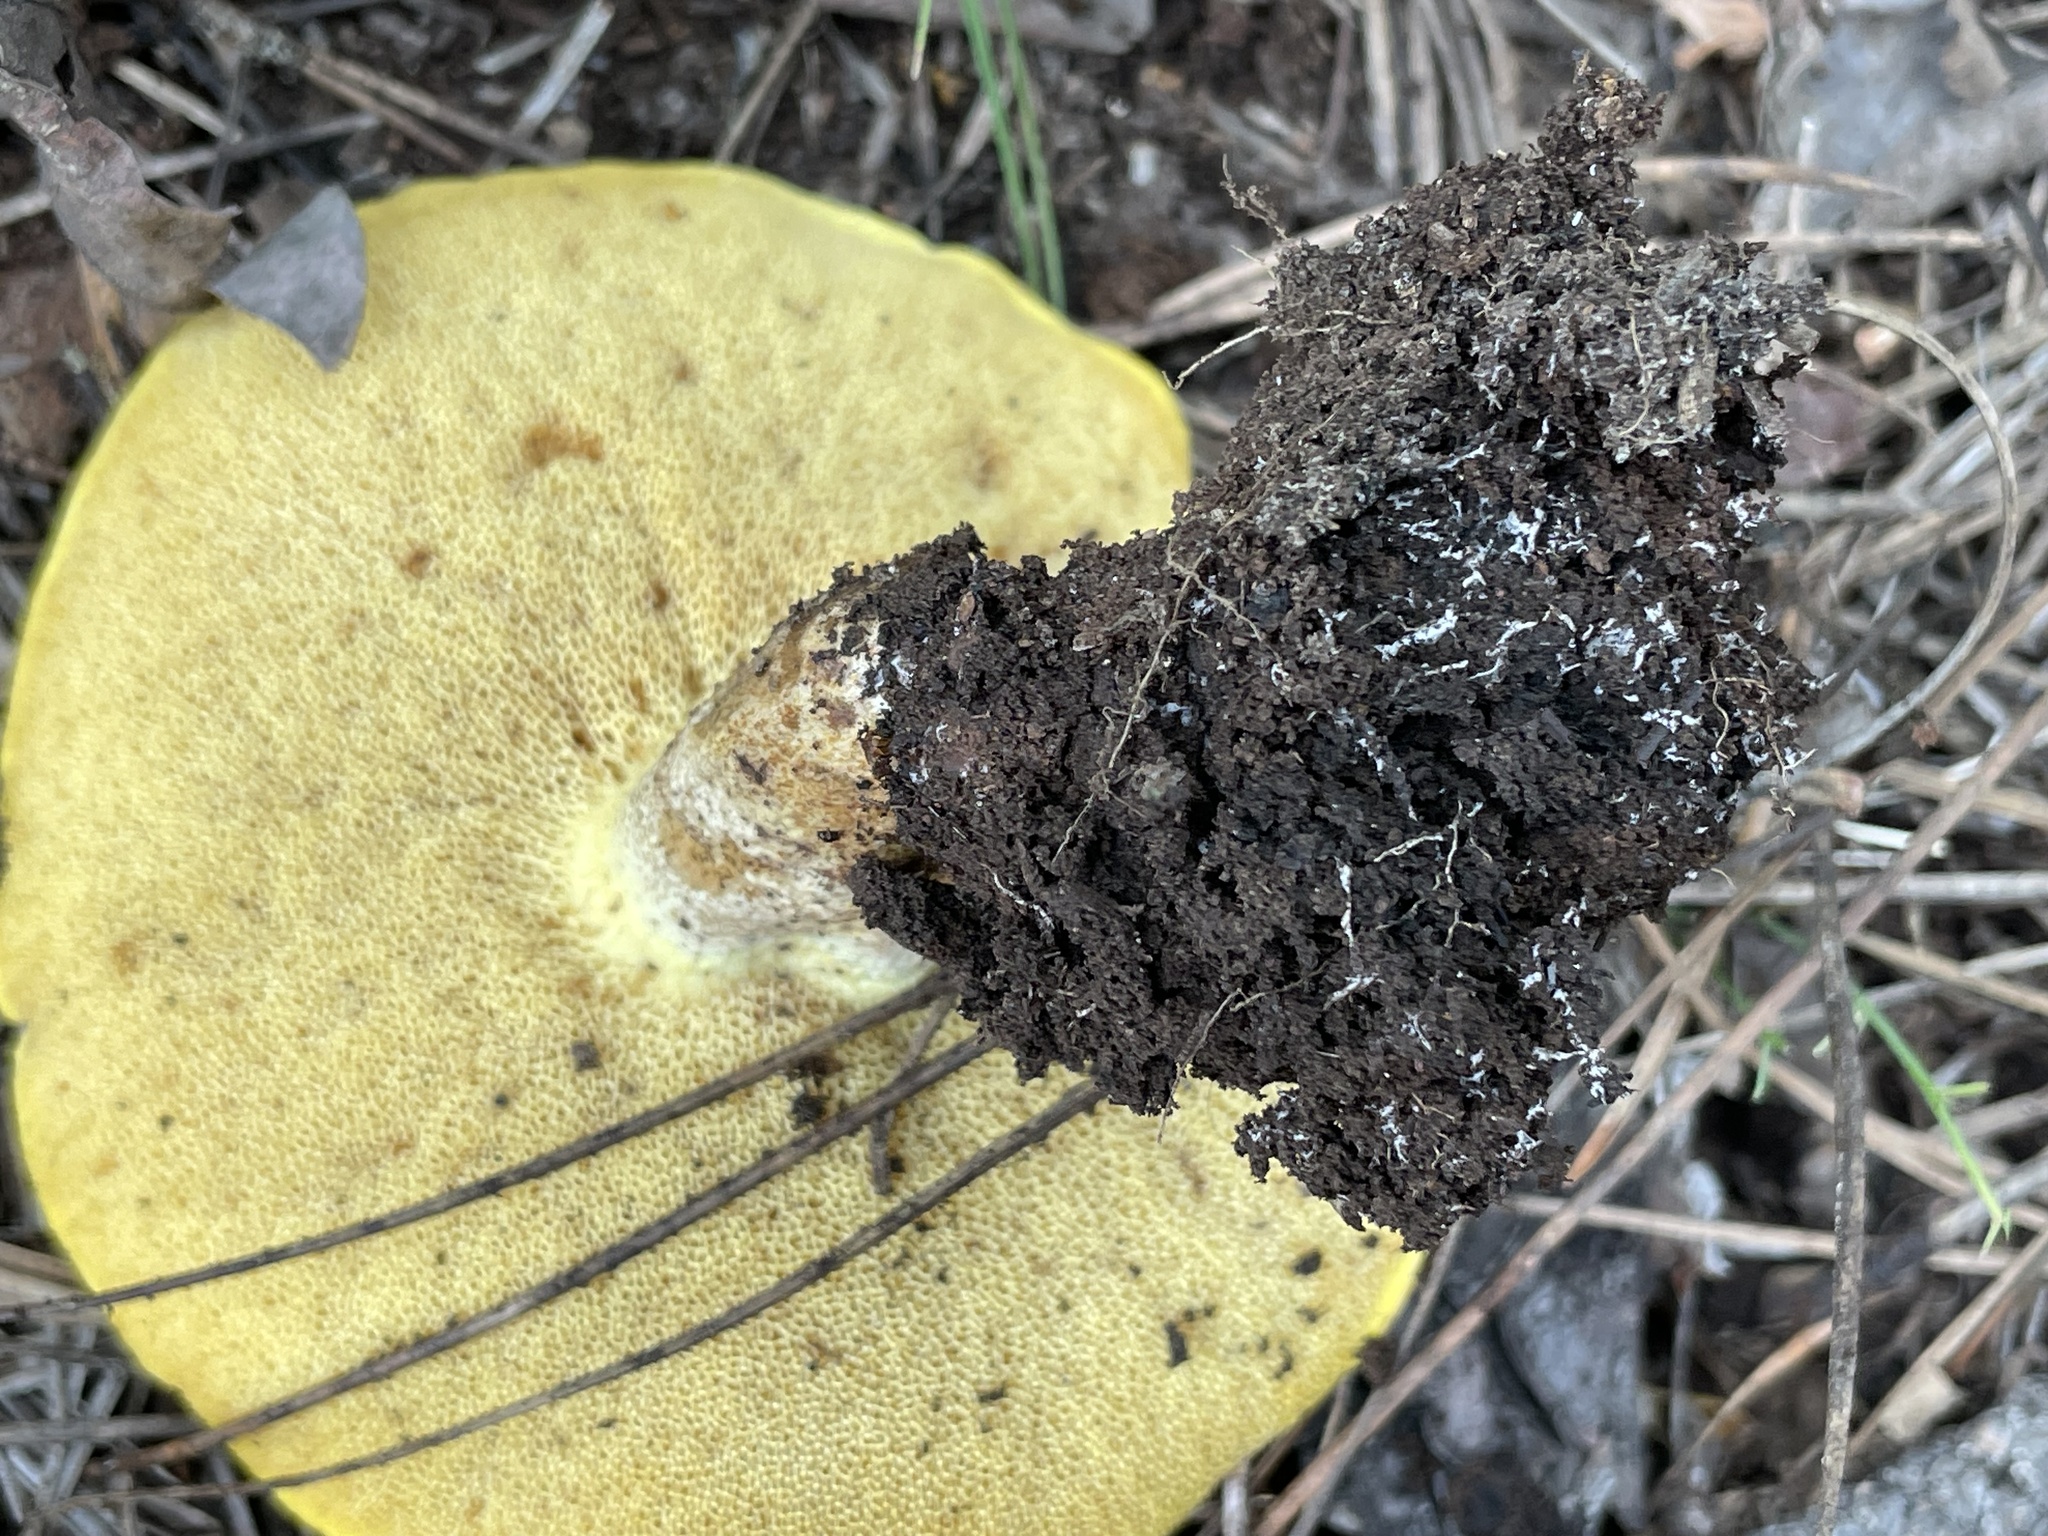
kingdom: Fungi
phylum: Basidiomycota
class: Agaricomycetes
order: Boletales
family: Suillaceae
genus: Suillus
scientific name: Suillus kaibabensis
